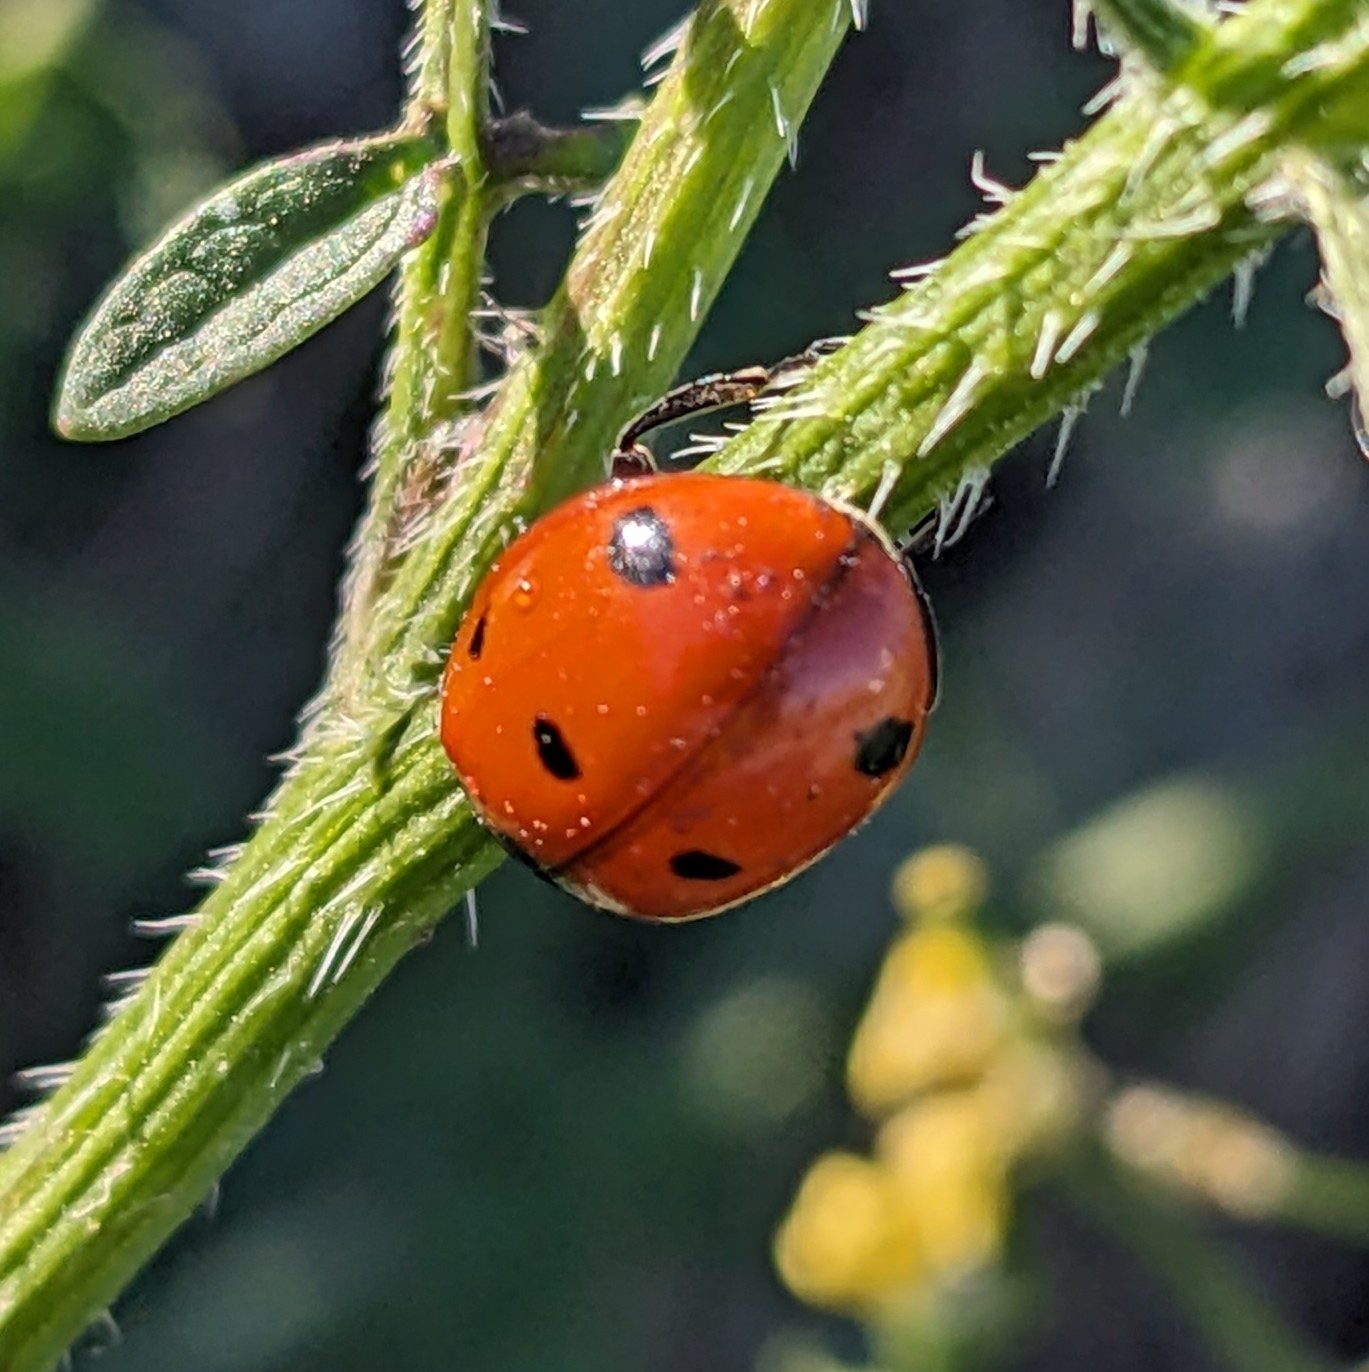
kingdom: Animalia
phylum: Arthropoda
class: Insecta
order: Coleoptera
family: Coccinellidae
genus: Coccinella
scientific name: Coccinella septempunctata
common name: Sevenspotted lady beetle
